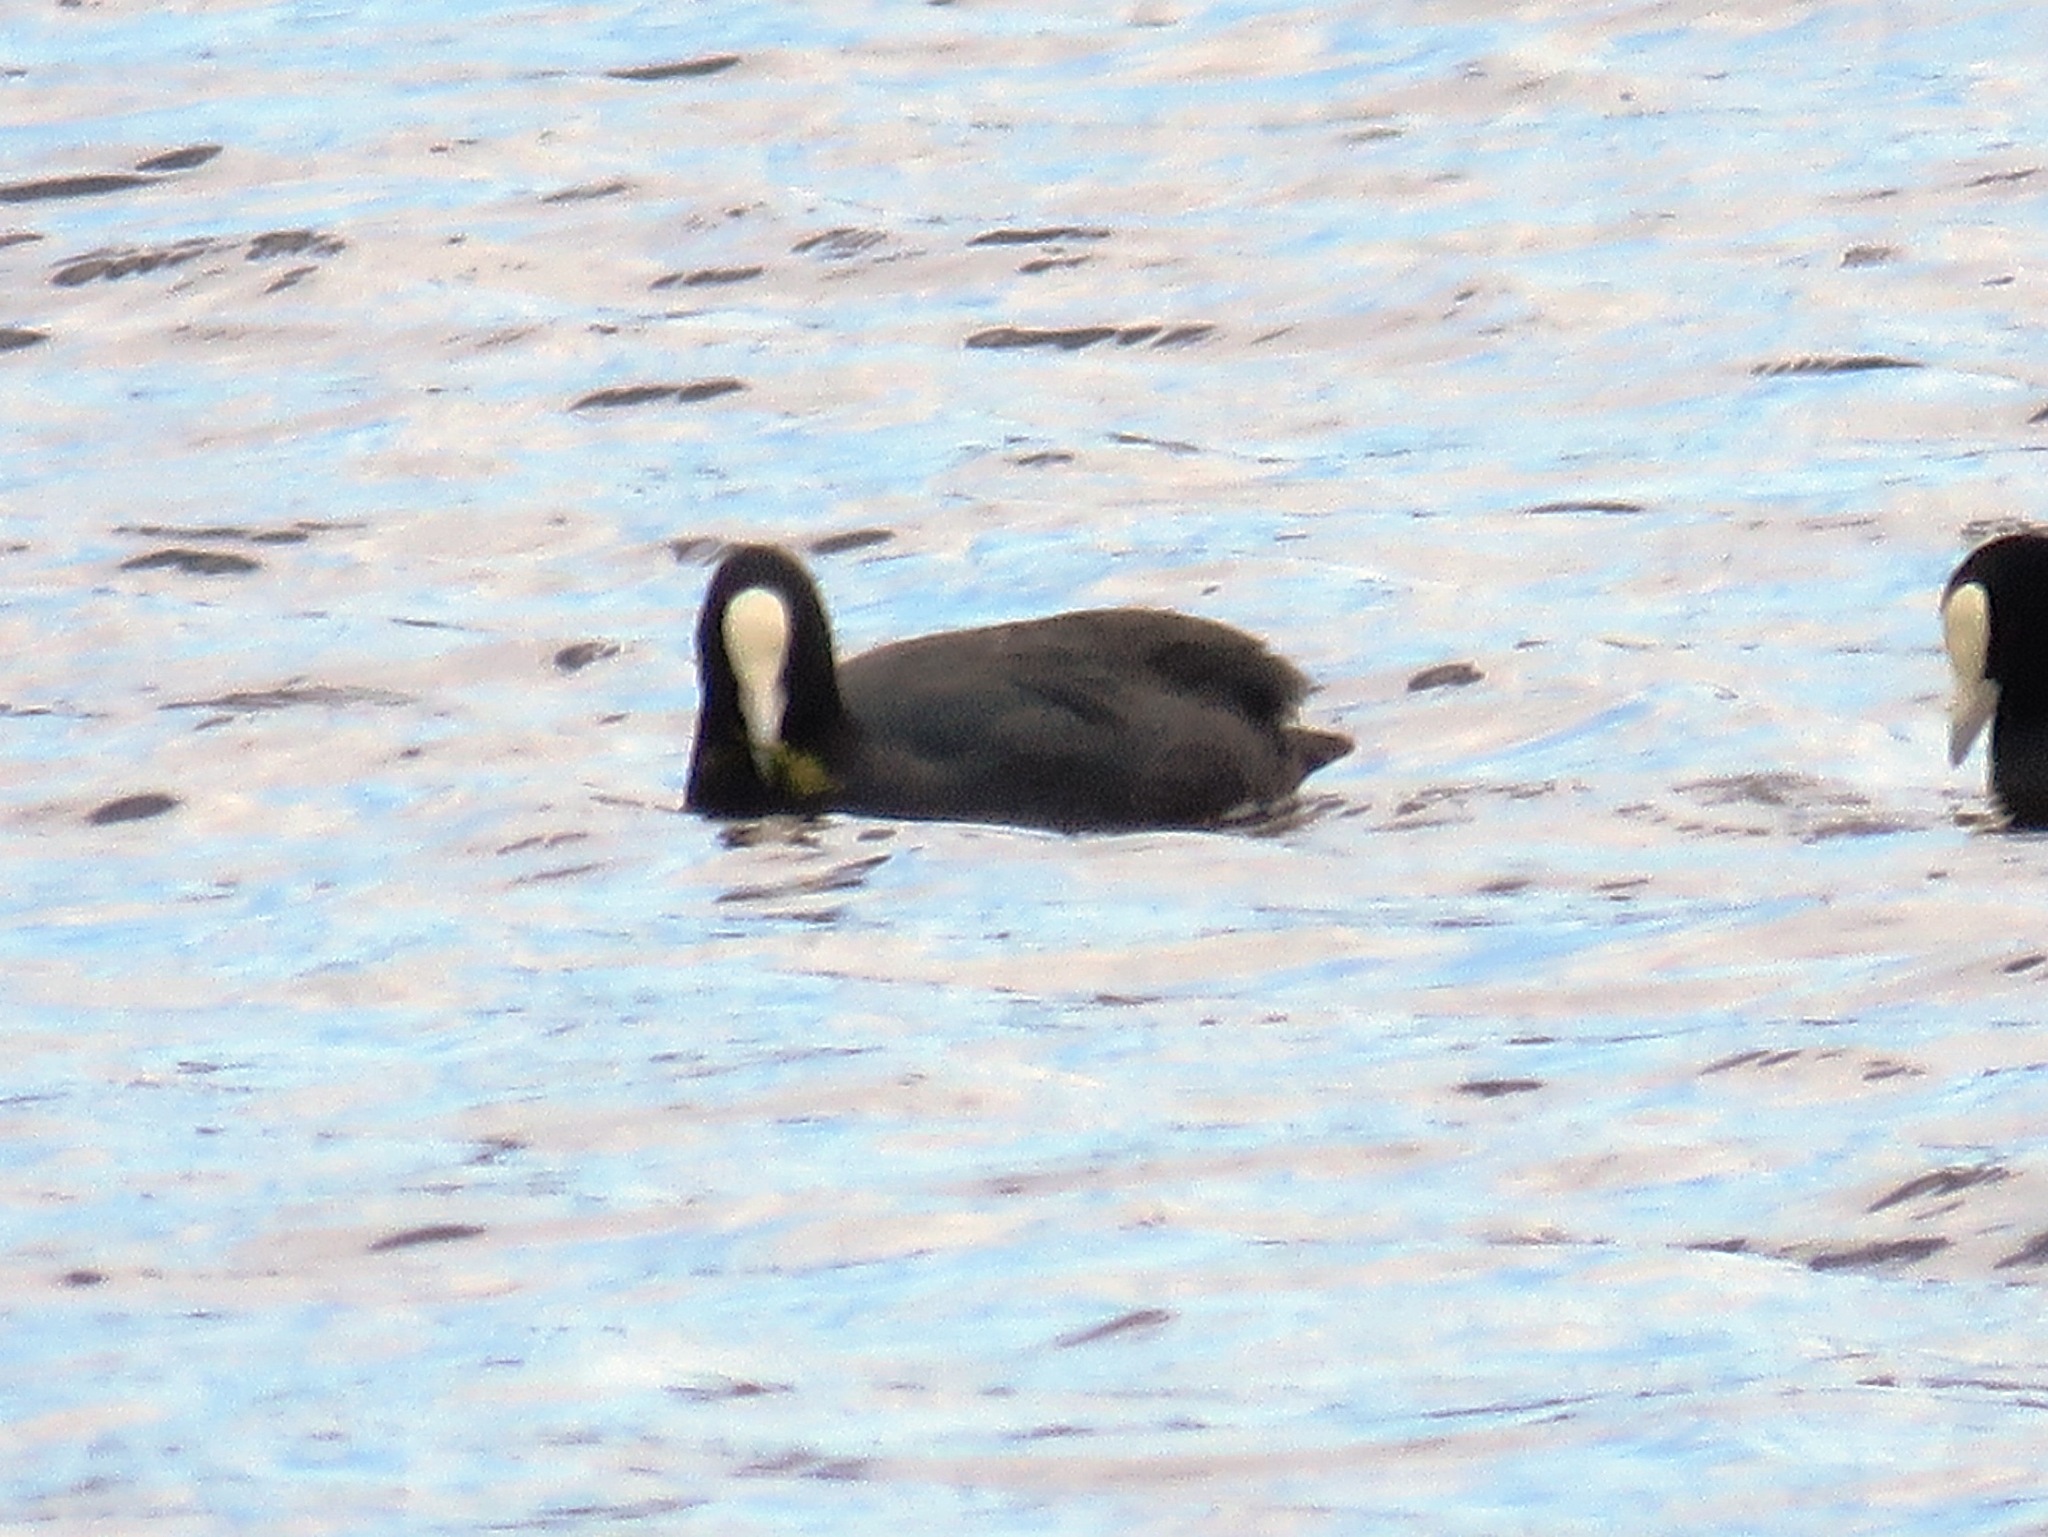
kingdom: Animalia
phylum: Chordata
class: Aves
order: Gruiformes
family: Rallidae
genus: Fulica
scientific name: Fulica atra
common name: Eurasian coot
